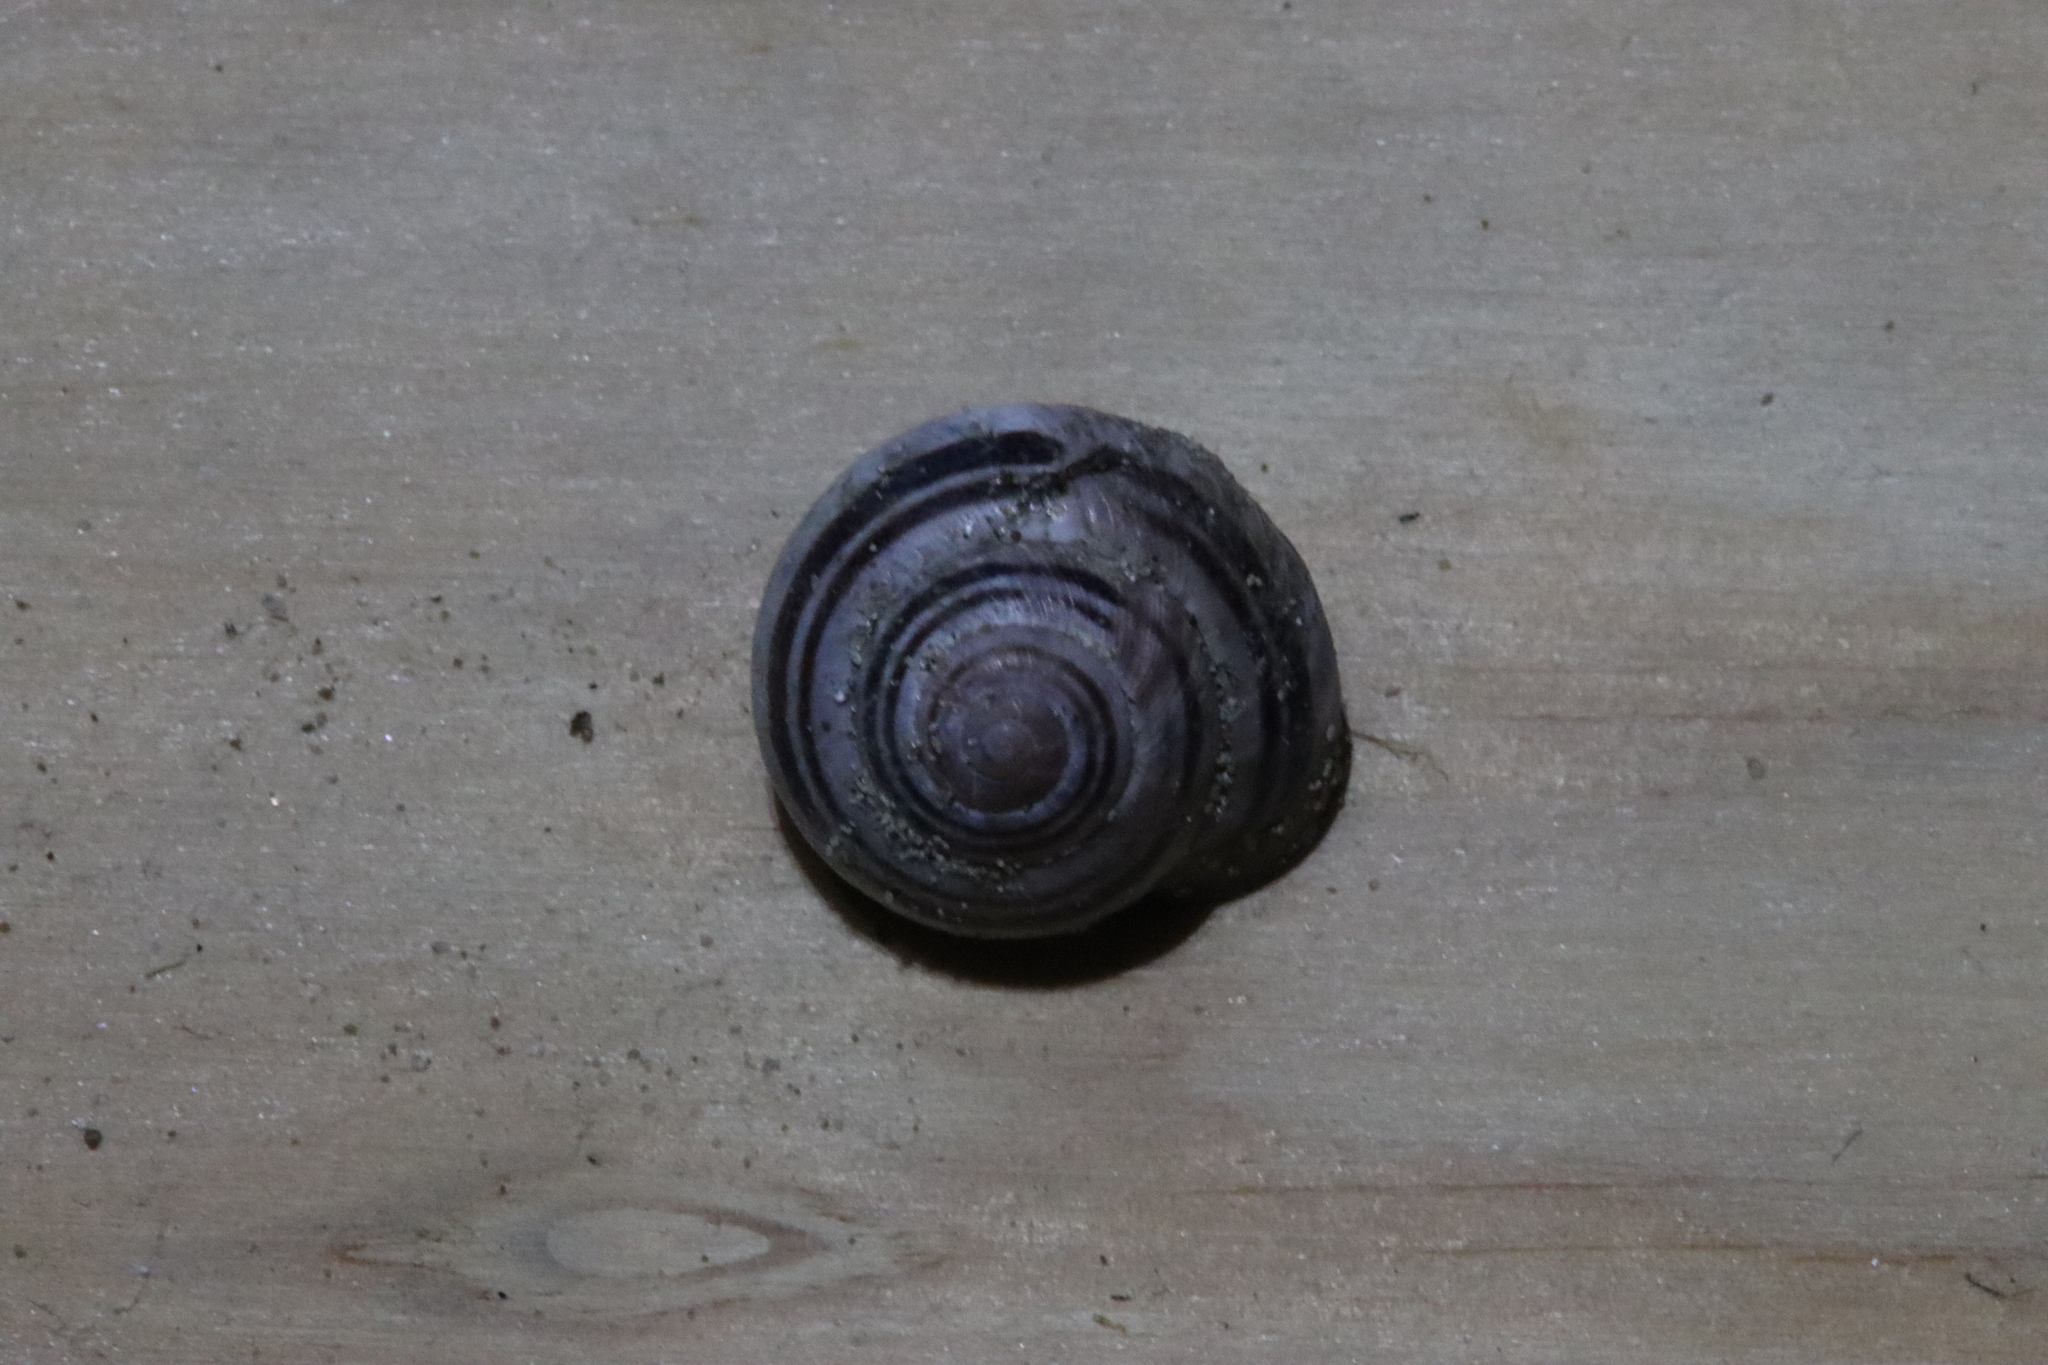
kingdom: Animalia
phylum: Mollusca
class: Gastropoda
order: Stylommatophora
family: Helicidae
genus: Cepaea
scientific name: Cepaea nemoralis
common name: Grovesnail
